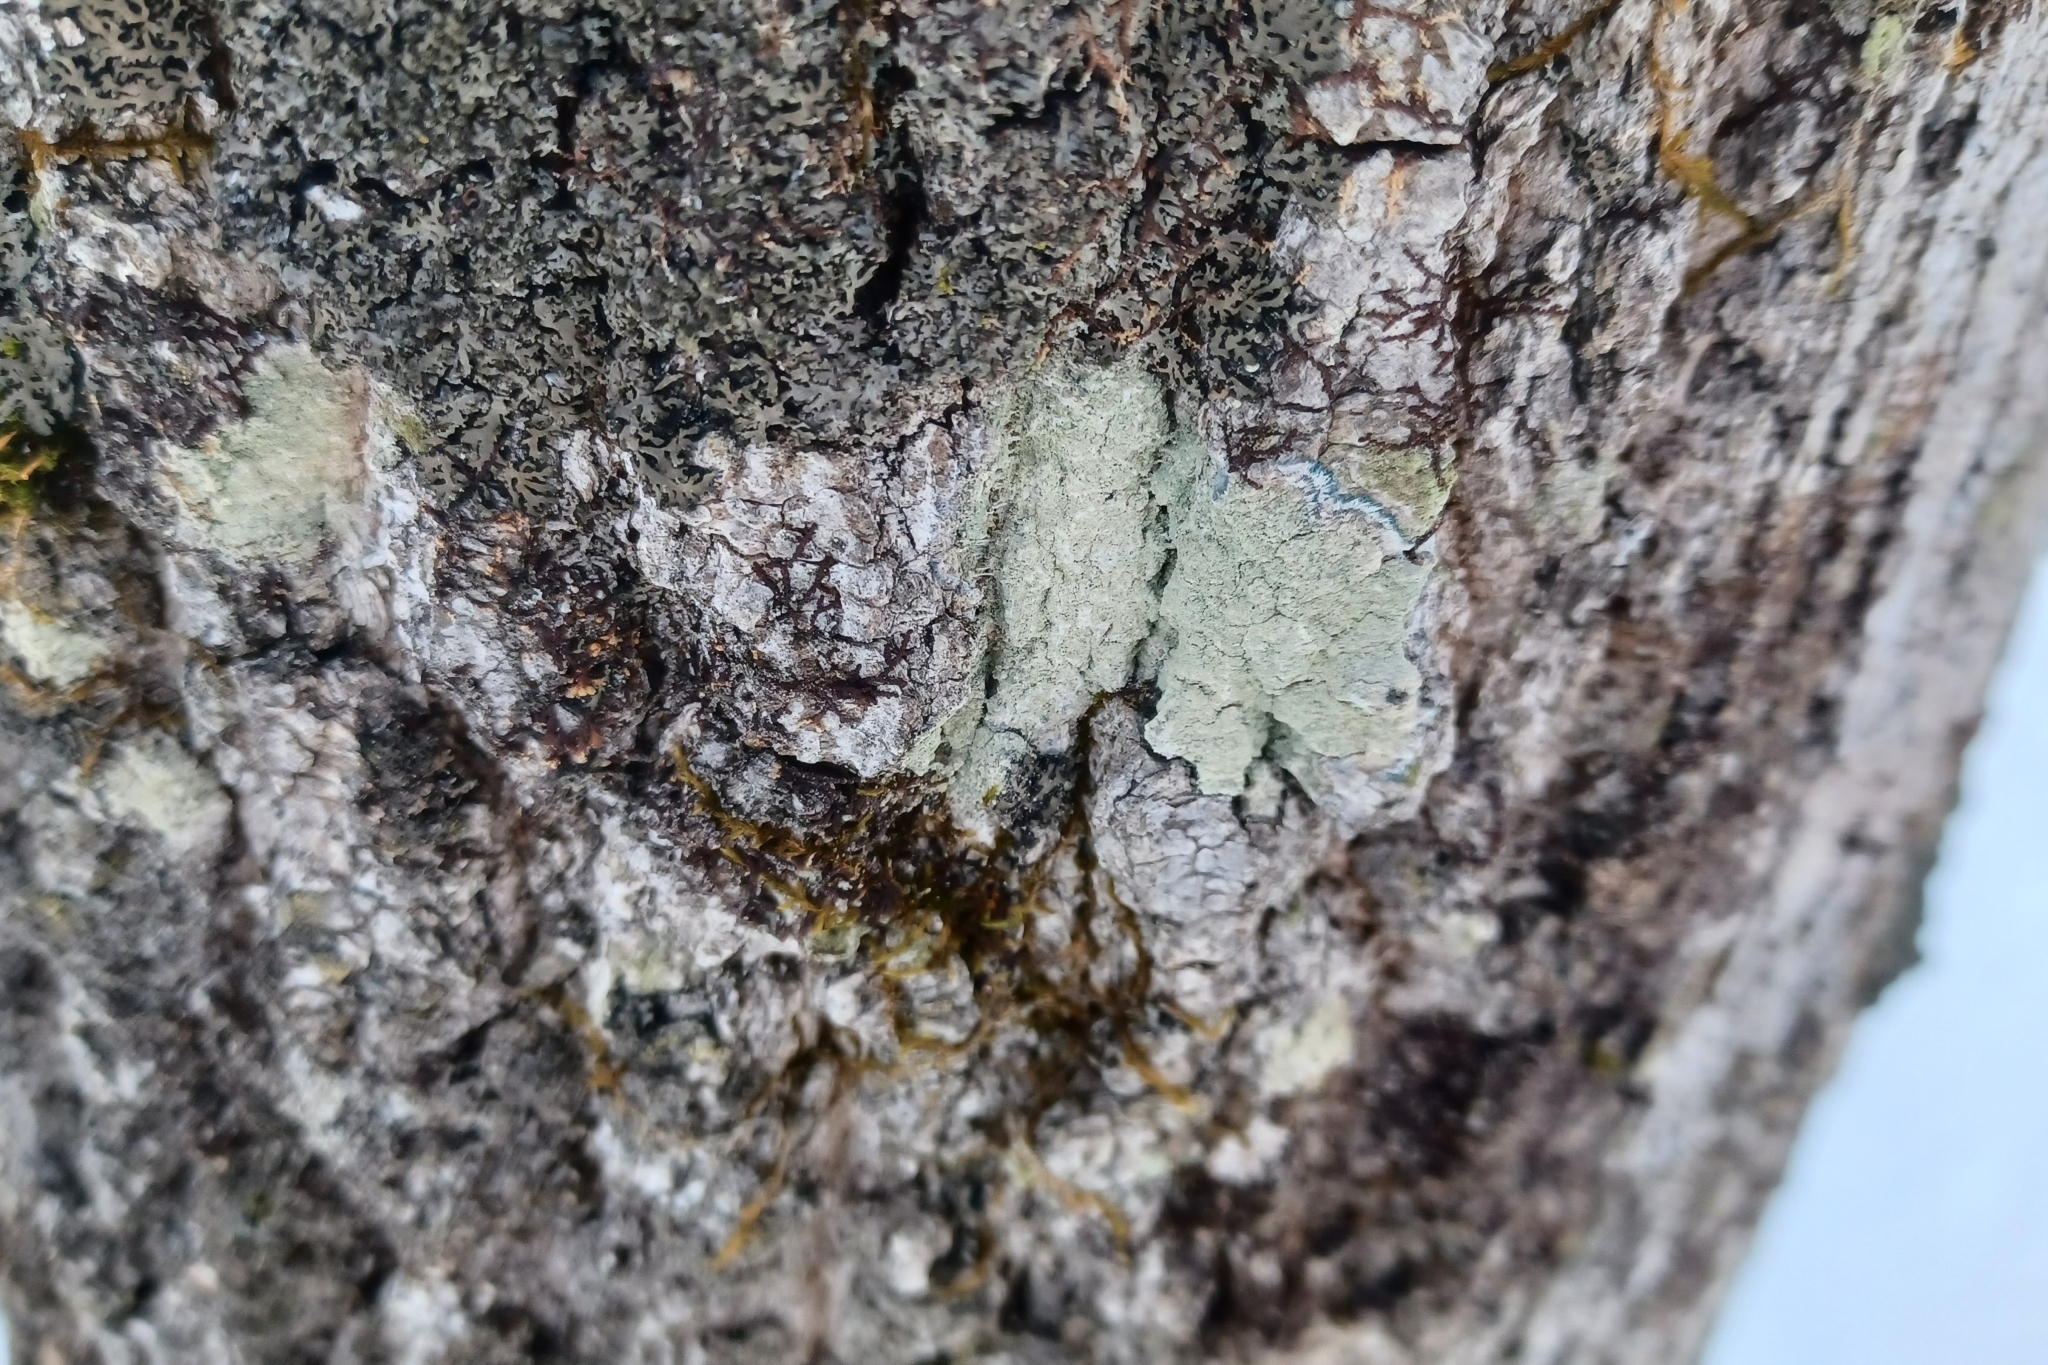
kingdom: Fungi
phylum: Ascomycota
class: Lecanoromycetes
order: Pertusariales
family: Pertusariaceae
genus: Verseghya
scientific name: Verseghya thysanophora
